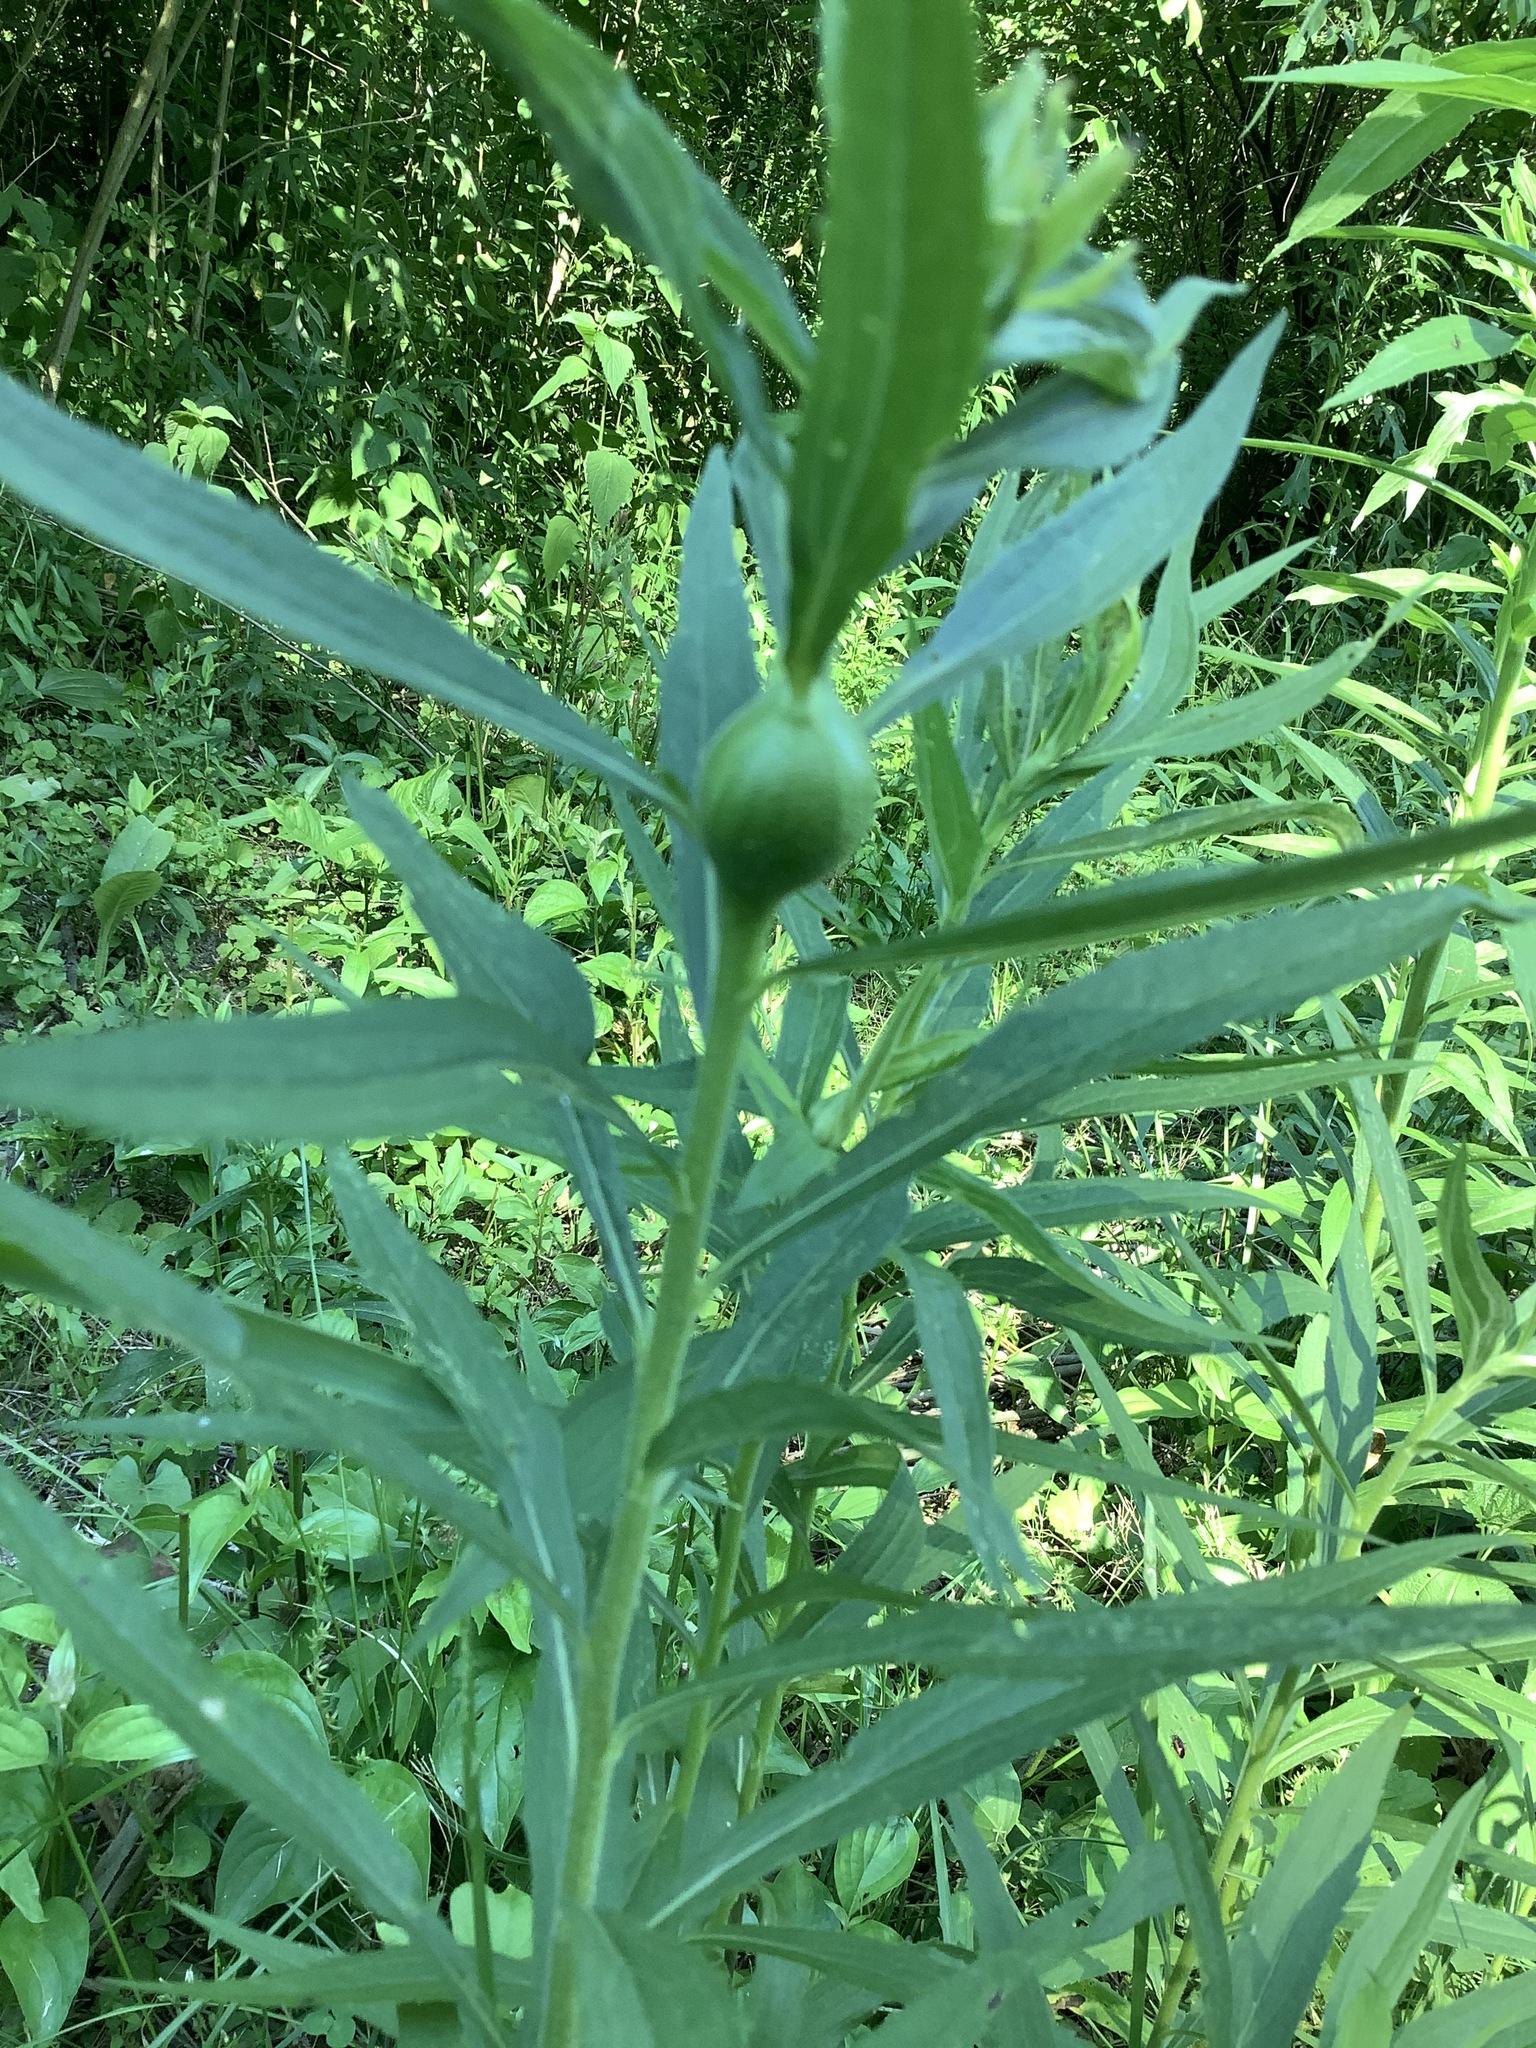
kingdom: Animalia
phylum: Arthropoda
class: Insecta
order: Diptera
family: Tephritidae
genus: Eurosta
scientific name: Eurosta solidaginis
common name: Goldenrod gall fly
